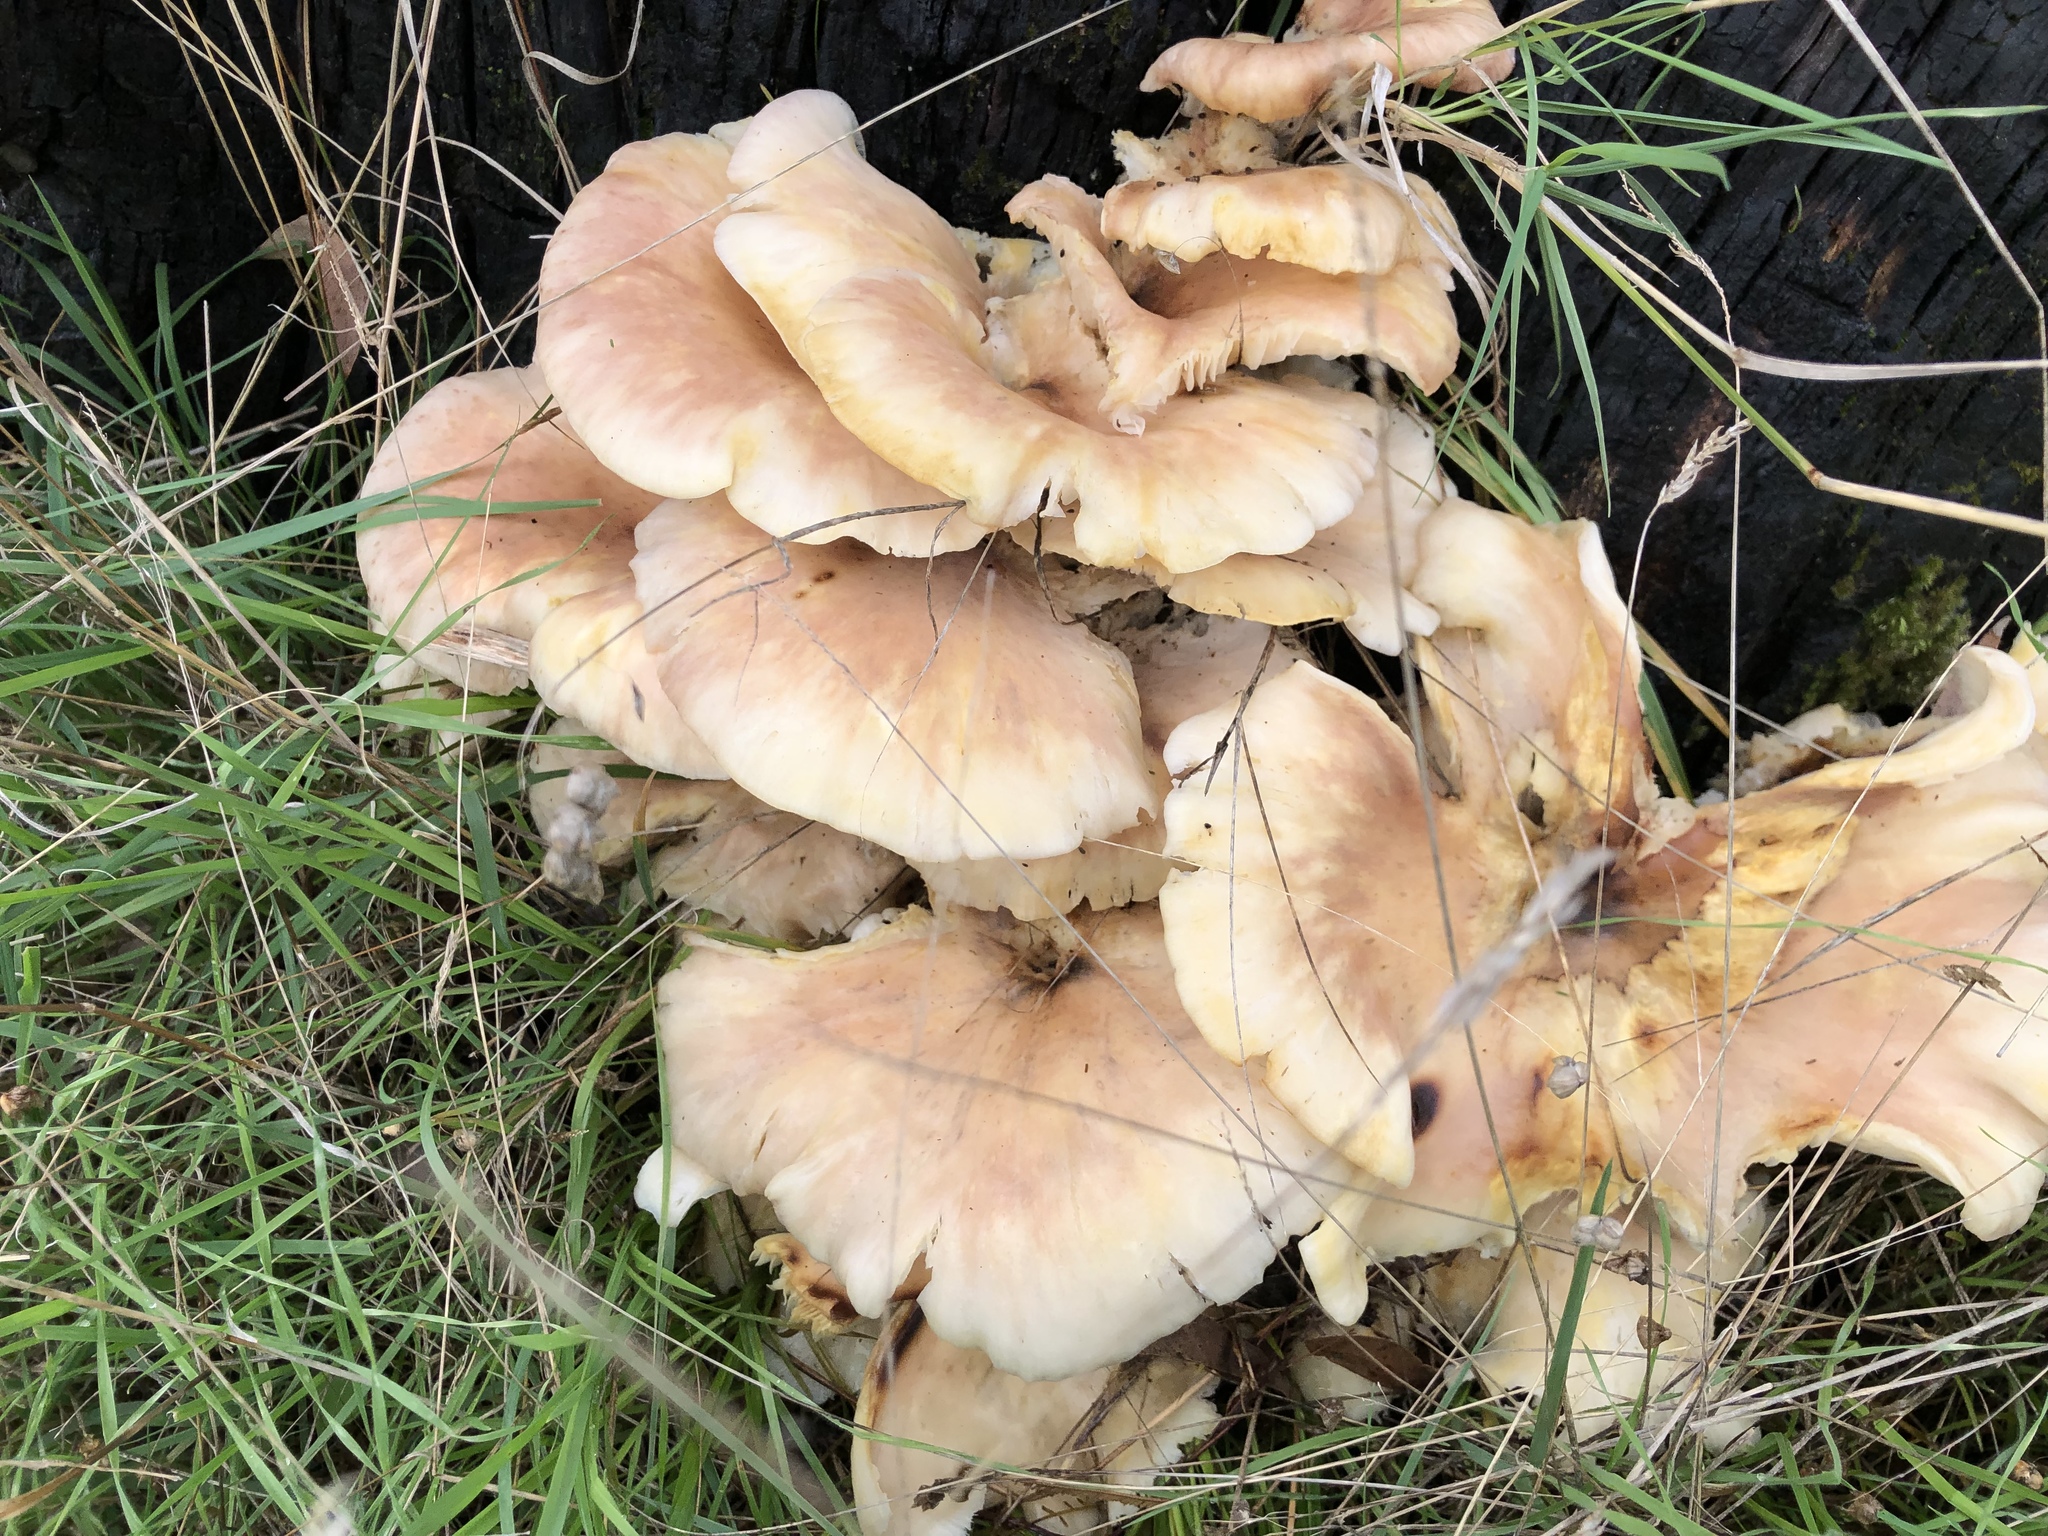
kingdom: Fungi
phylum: Basidiomycota
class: Agaricomycetes
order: Agaricales
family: Omphalotaceae
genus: Omphalotus
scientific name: Omphalotus nidiformis
